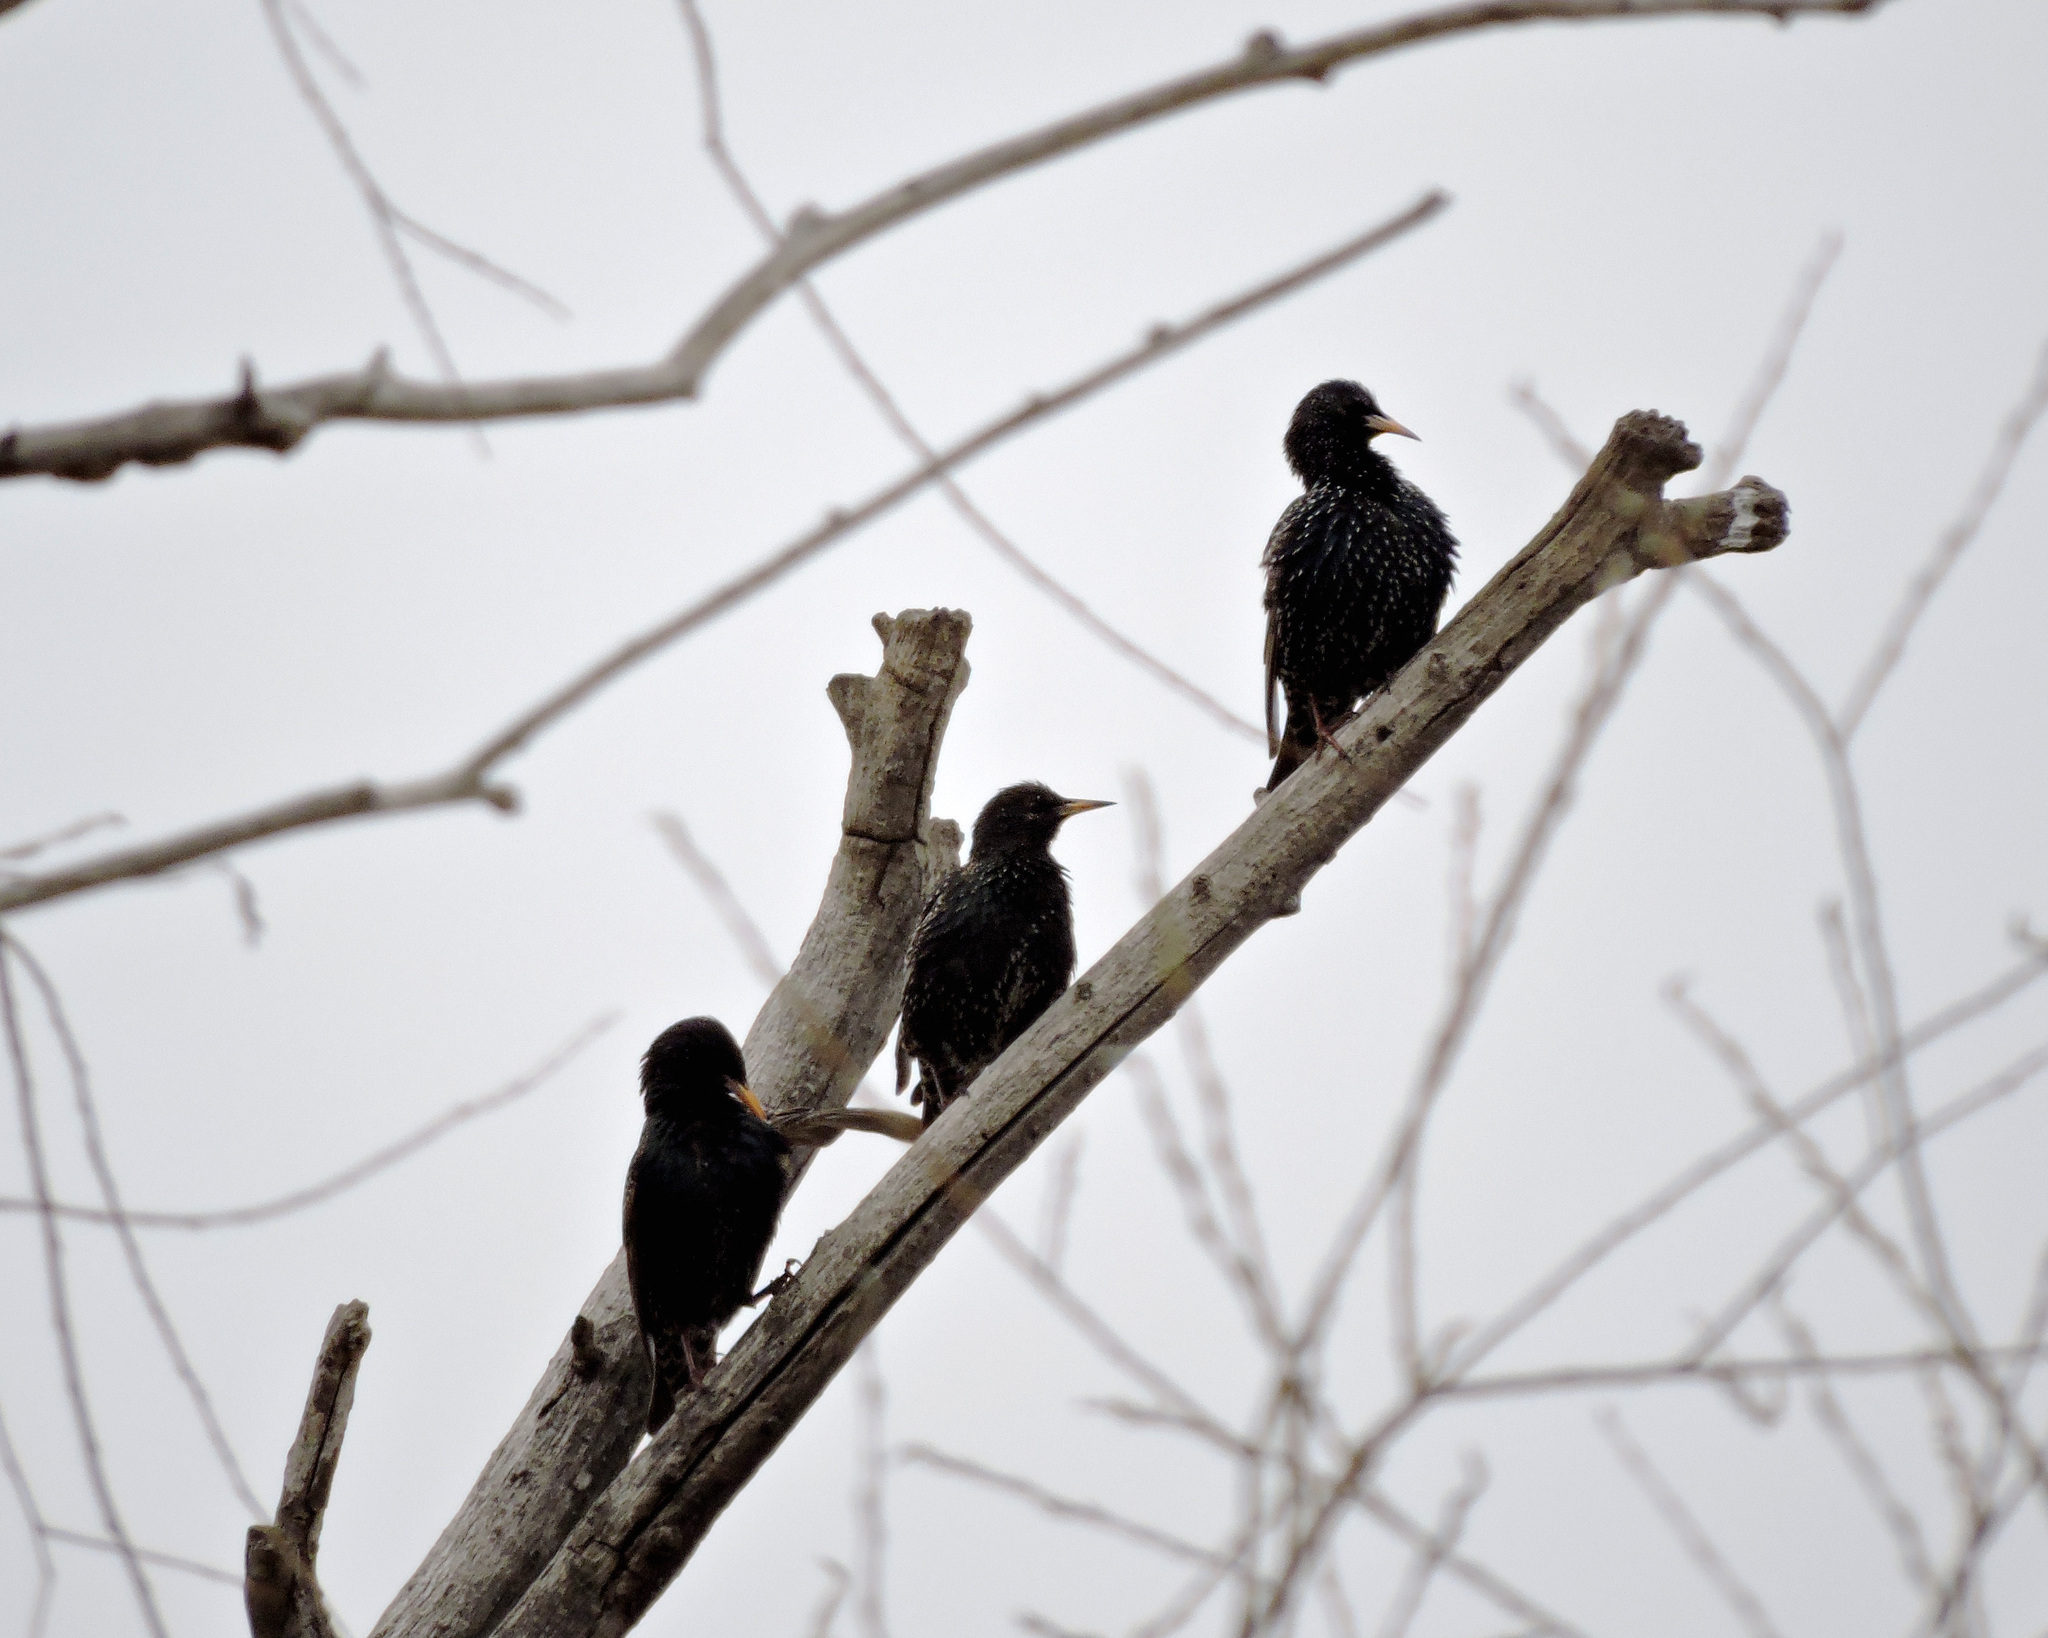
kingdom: Animalia
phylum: Chordata
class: Aves
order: Passeriformes
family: Sturnidae
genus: Sturnus
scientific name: Sturnus vulgaris
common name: Common starling
